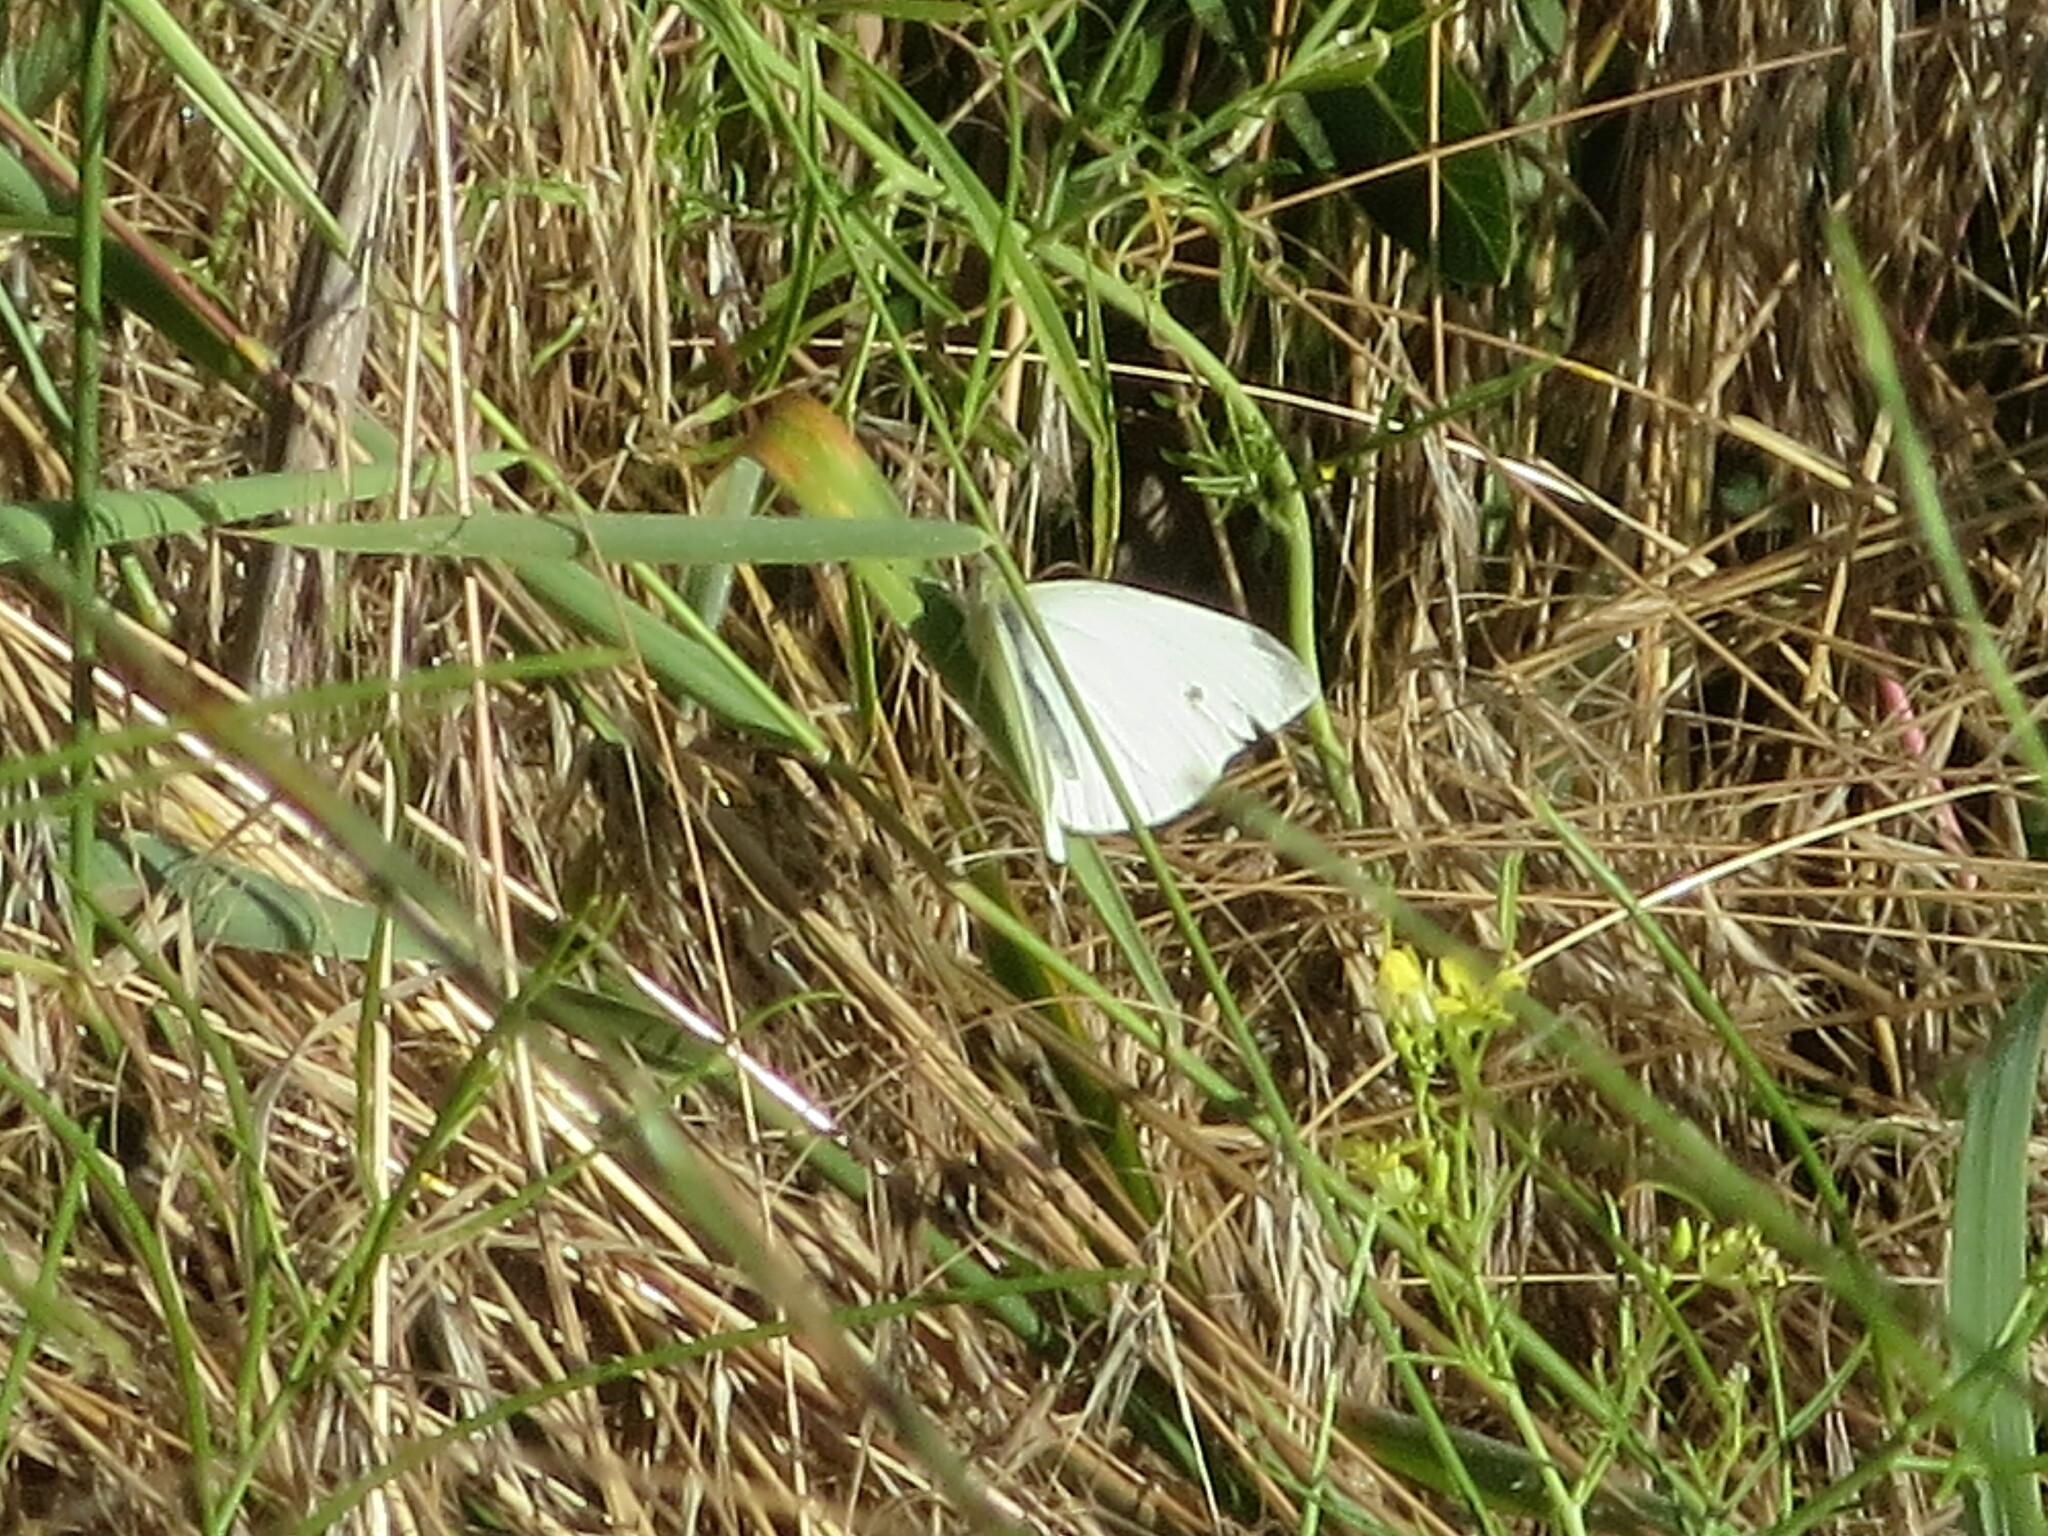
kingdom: Animalia
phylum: Arthropoda
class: Insecta
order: Lepidoptera
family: Pieridae
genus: Pieris
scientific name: Pieris rapae
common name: Small white
